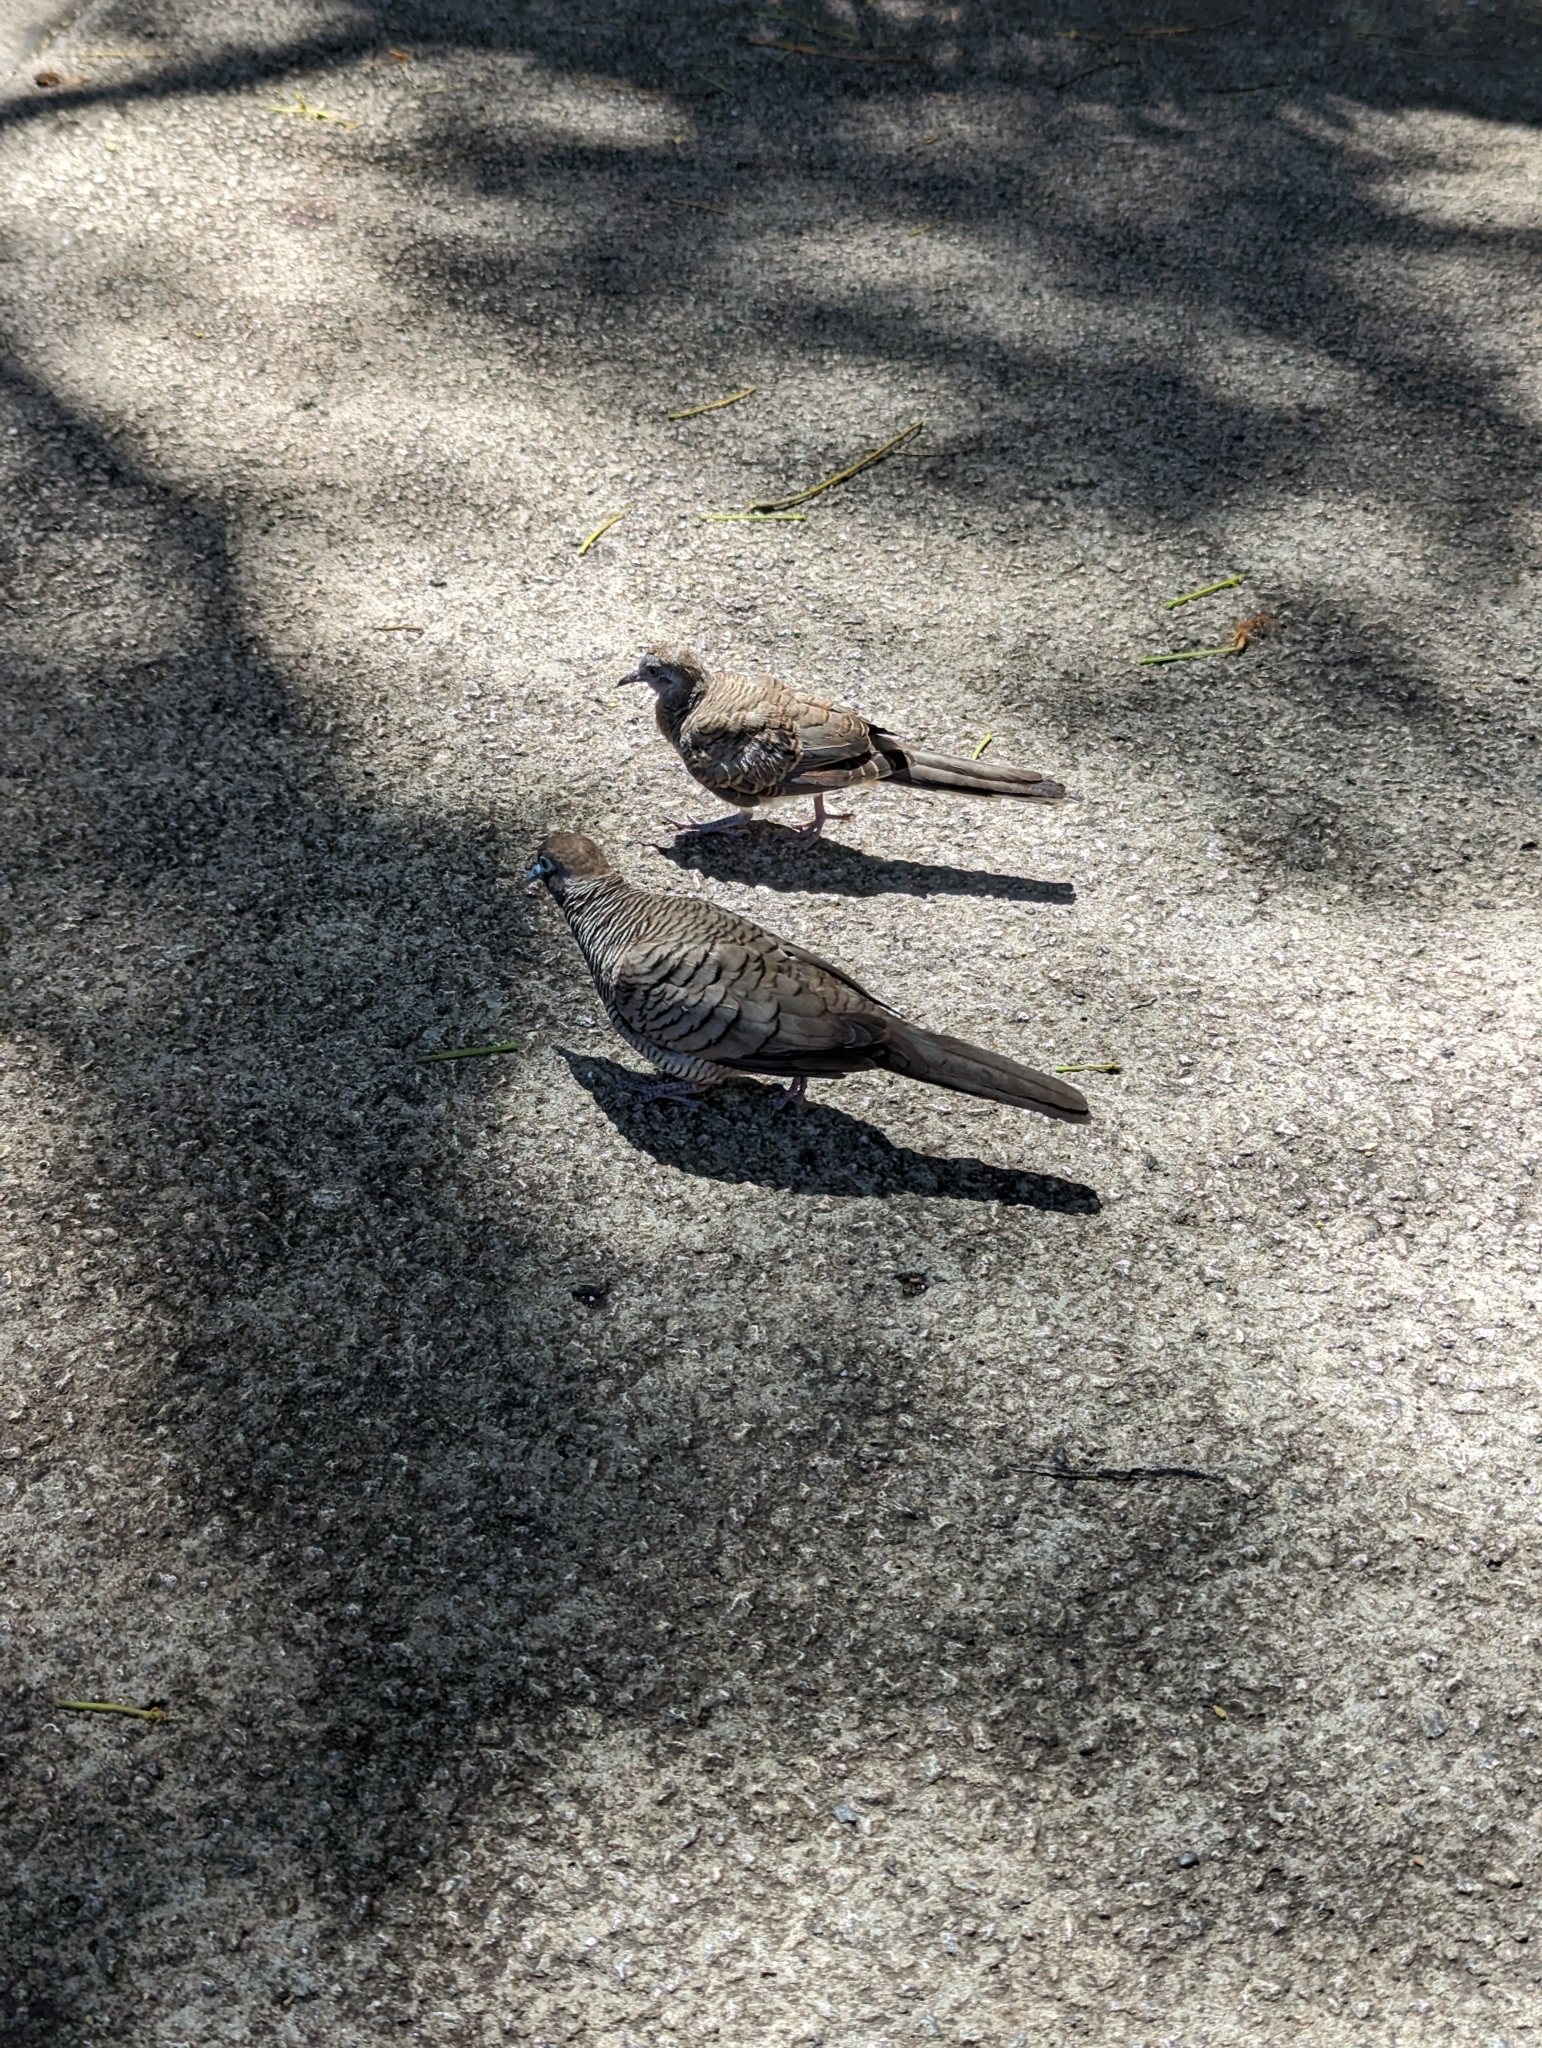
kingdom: Animalia
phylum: Chordata
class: Aves
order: Columbiformes
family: Columbidae
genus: Geopelia
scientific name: Geopelia striata
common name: Zebra dove
